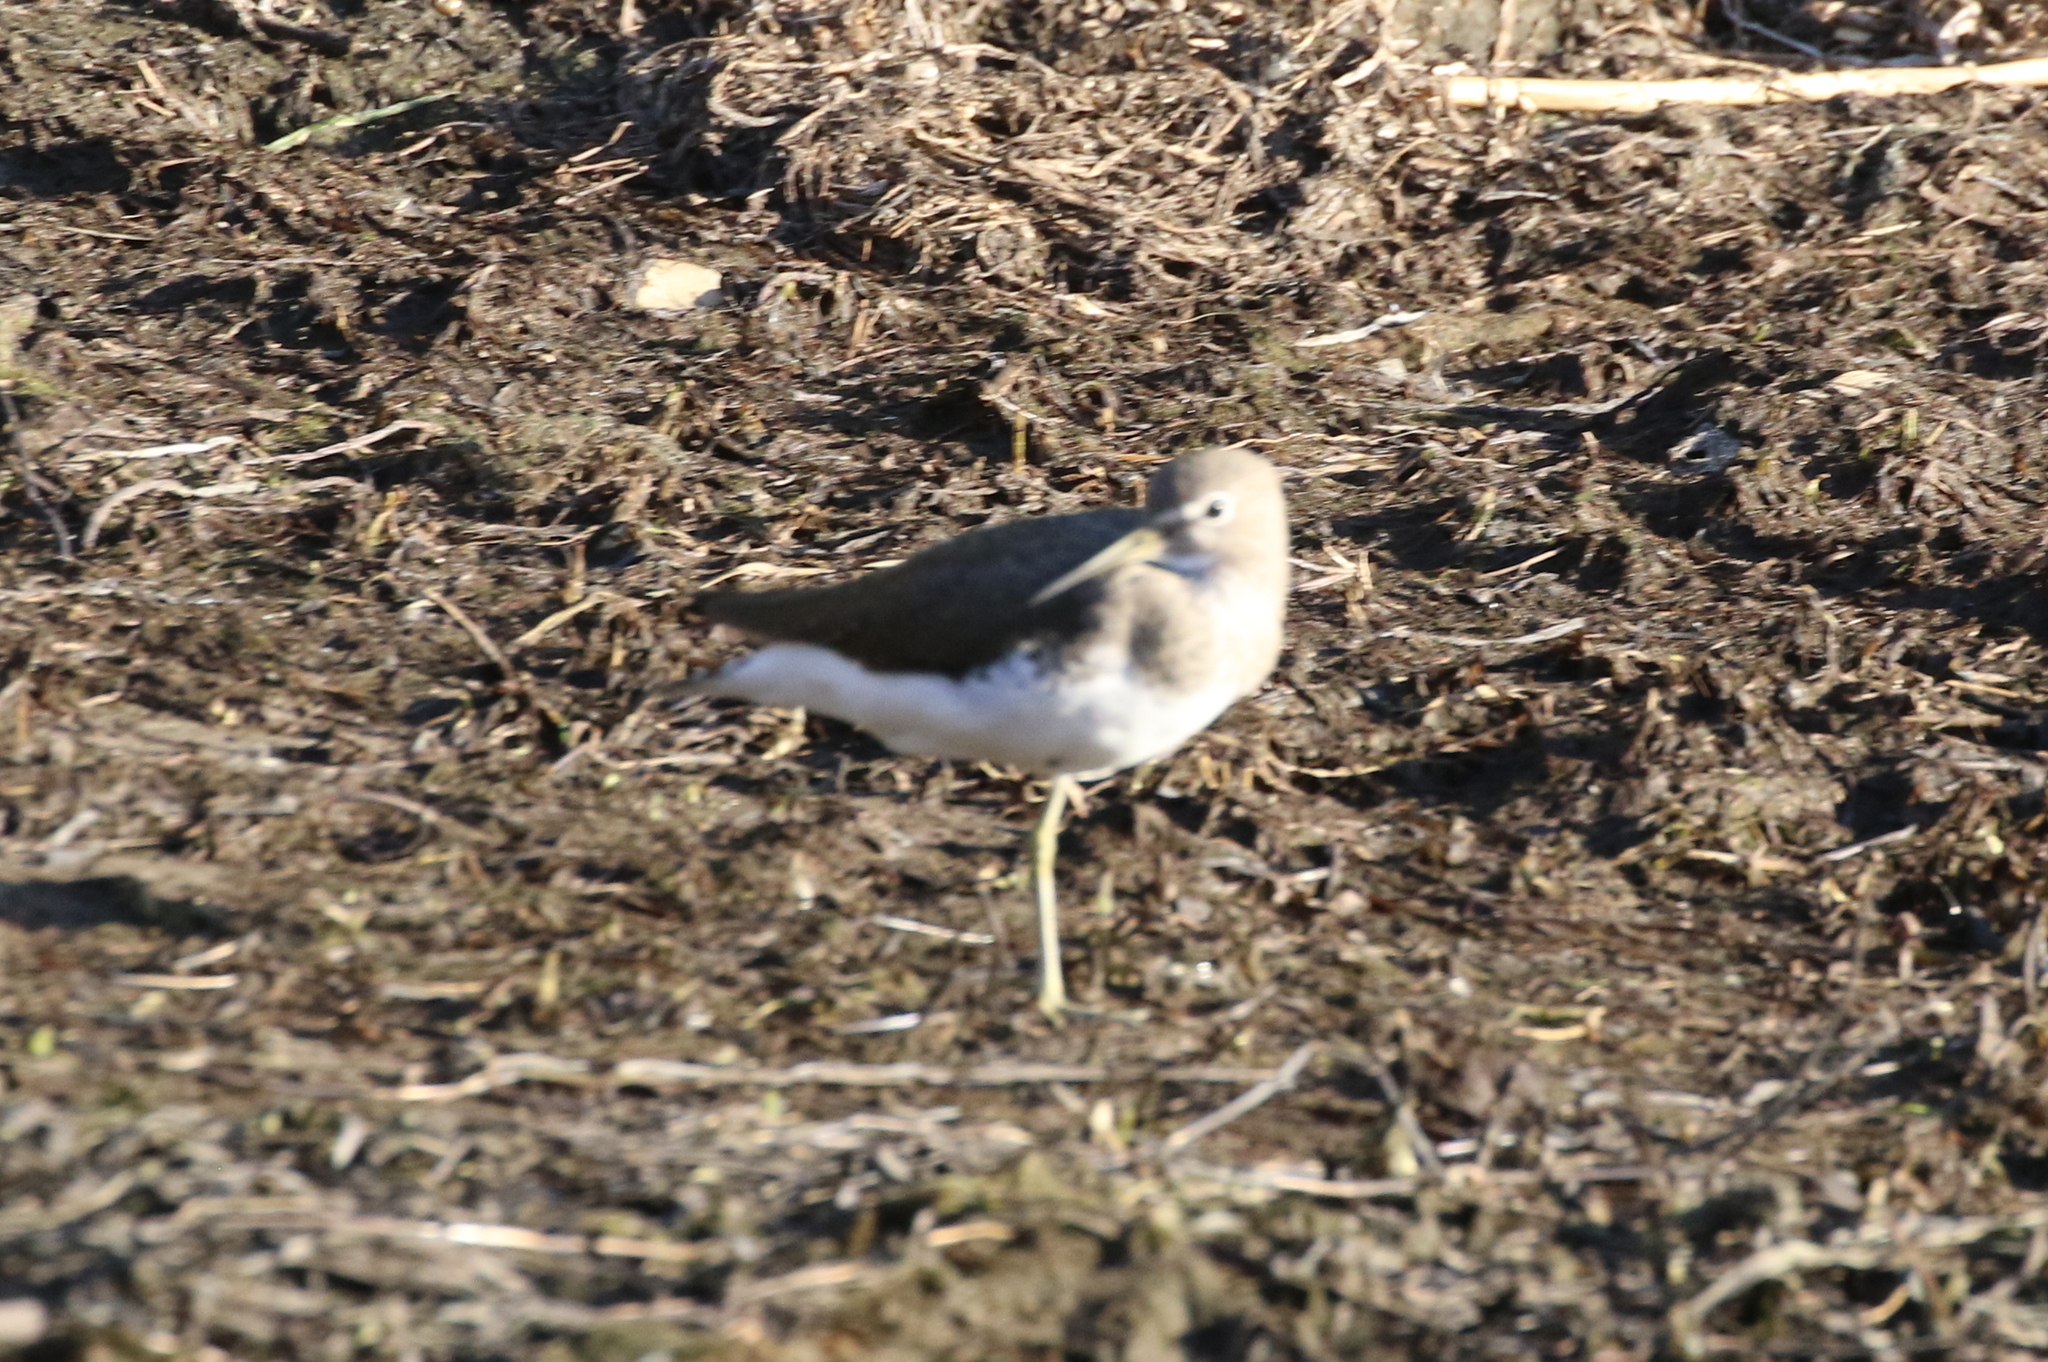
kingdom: Animalia
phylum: Chordata
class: Aves
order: Charadriiformes
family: Scolopacidae
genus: Tringa
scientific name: Tringa ochropus
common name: Green sandpiper
